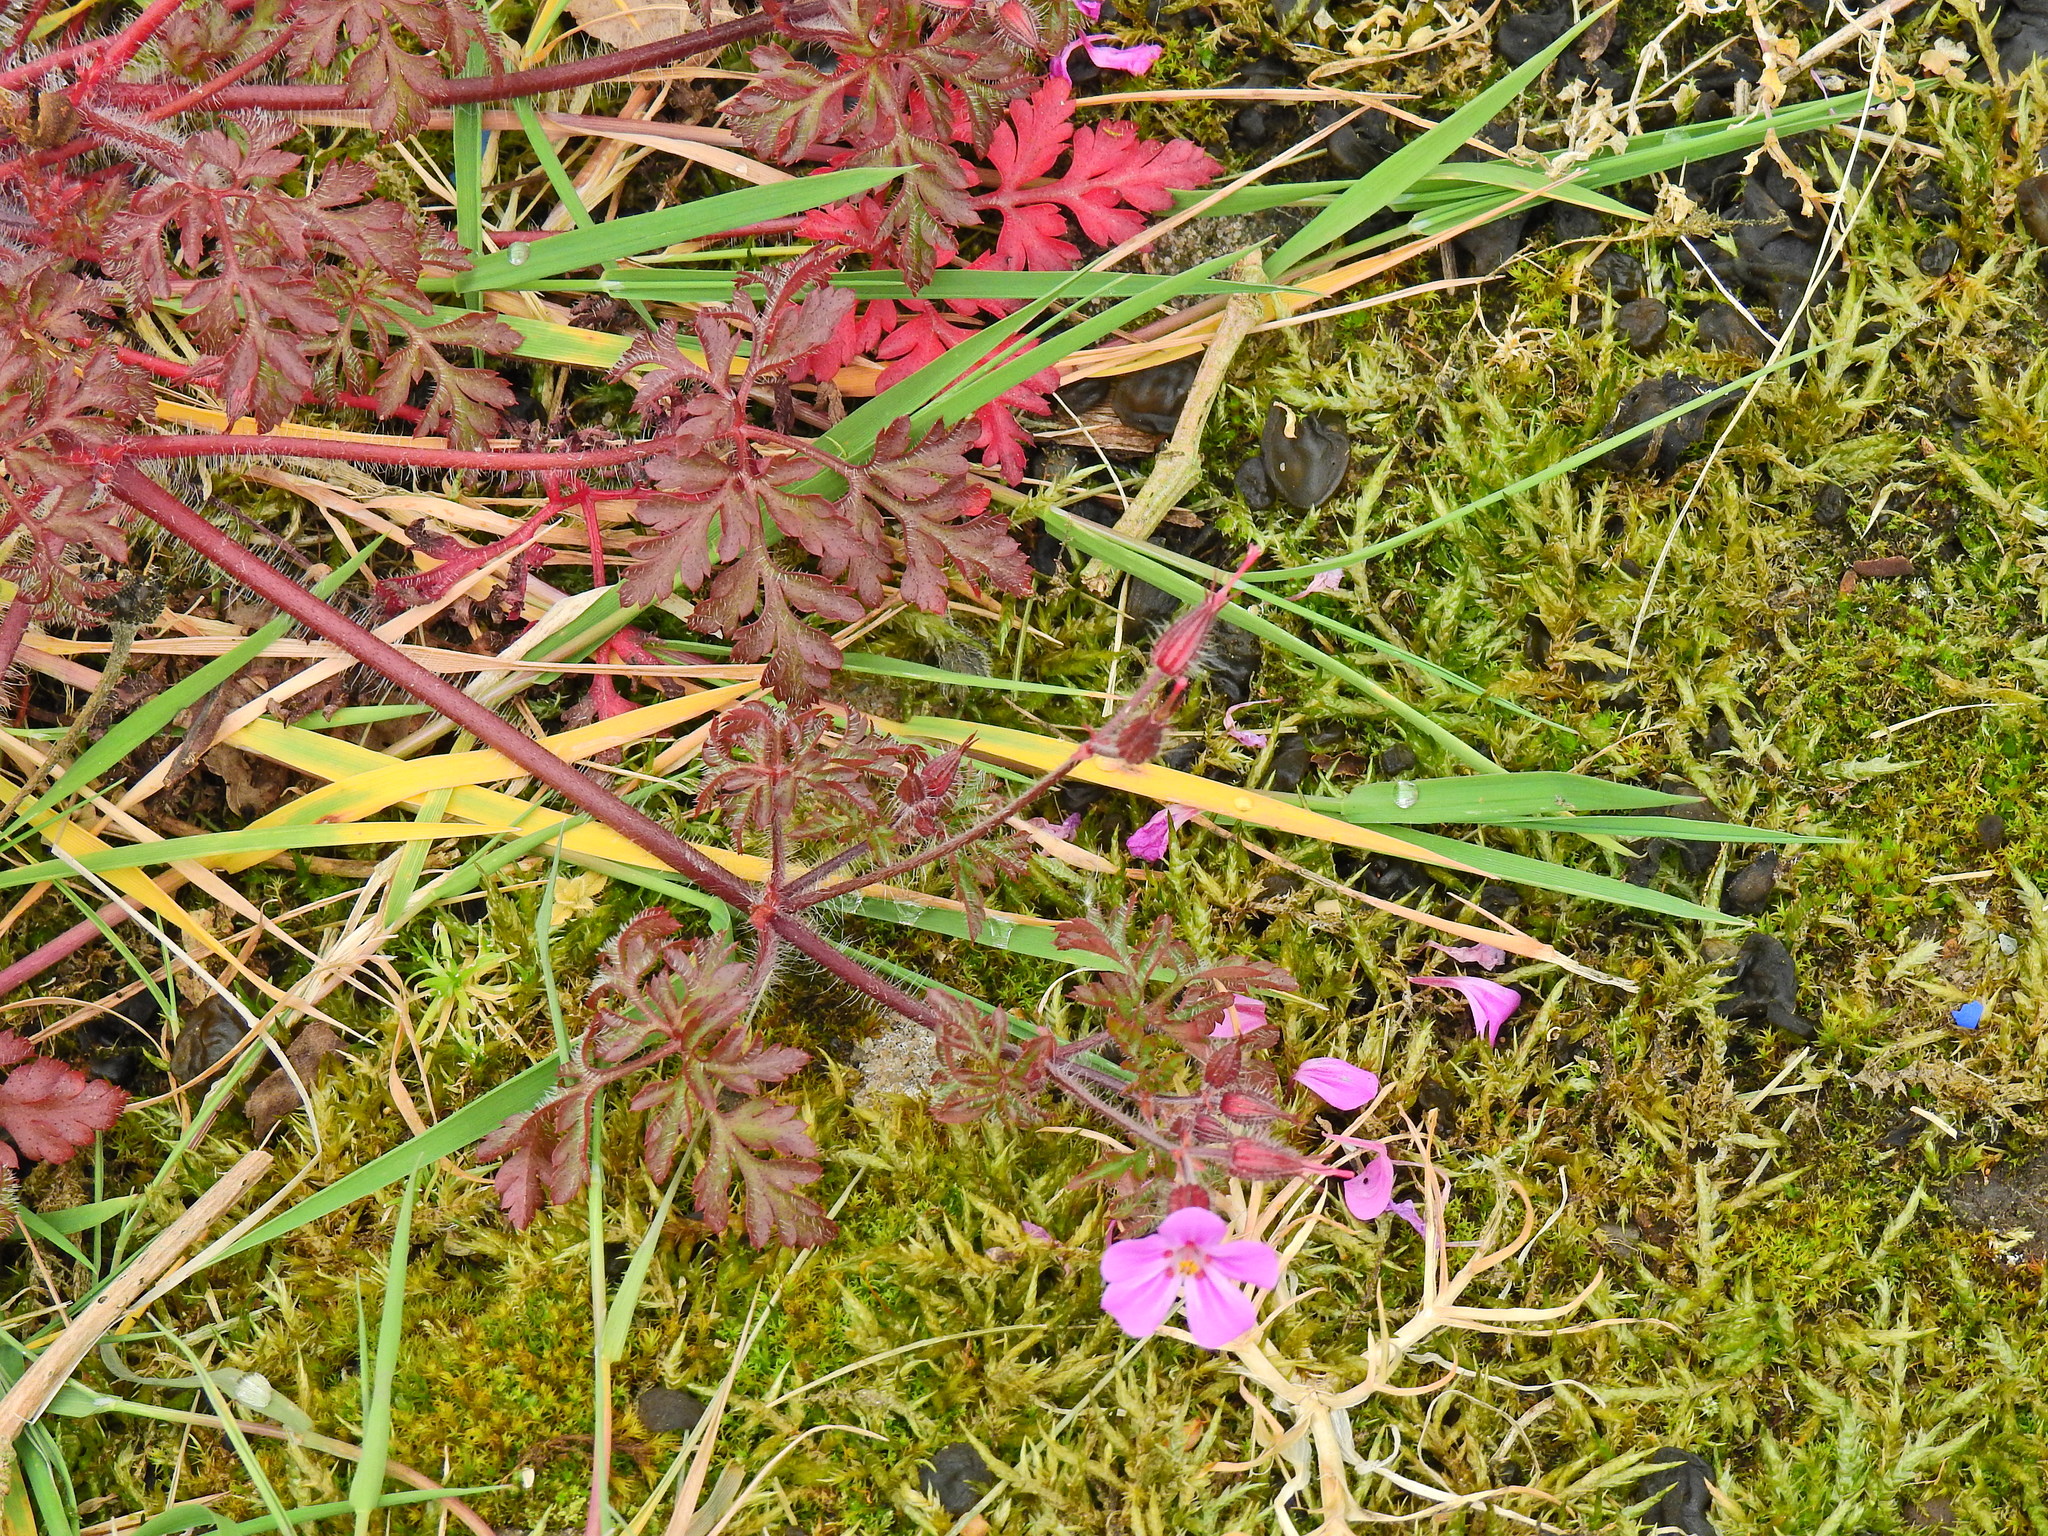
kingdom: Plantae
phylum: Tracheophyta
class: Magnoliopsida
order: Geraniales
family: Geraniaceae
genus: Geranium
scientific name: Geranium robertianum
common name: Herb-robert
